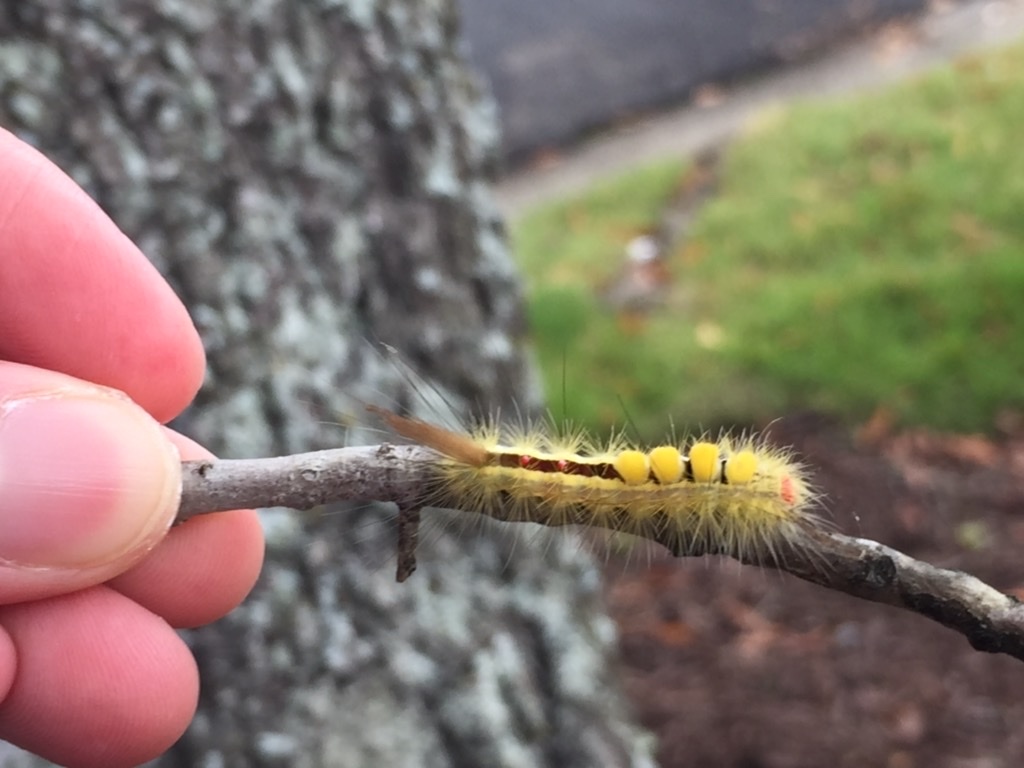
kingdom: Animalia
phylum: Arthropoda
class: Insecta
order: Lepidoptera
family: Erebidae
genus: Orgyia
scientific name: Orgyia leucostigma
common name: White-marked tussock moth
